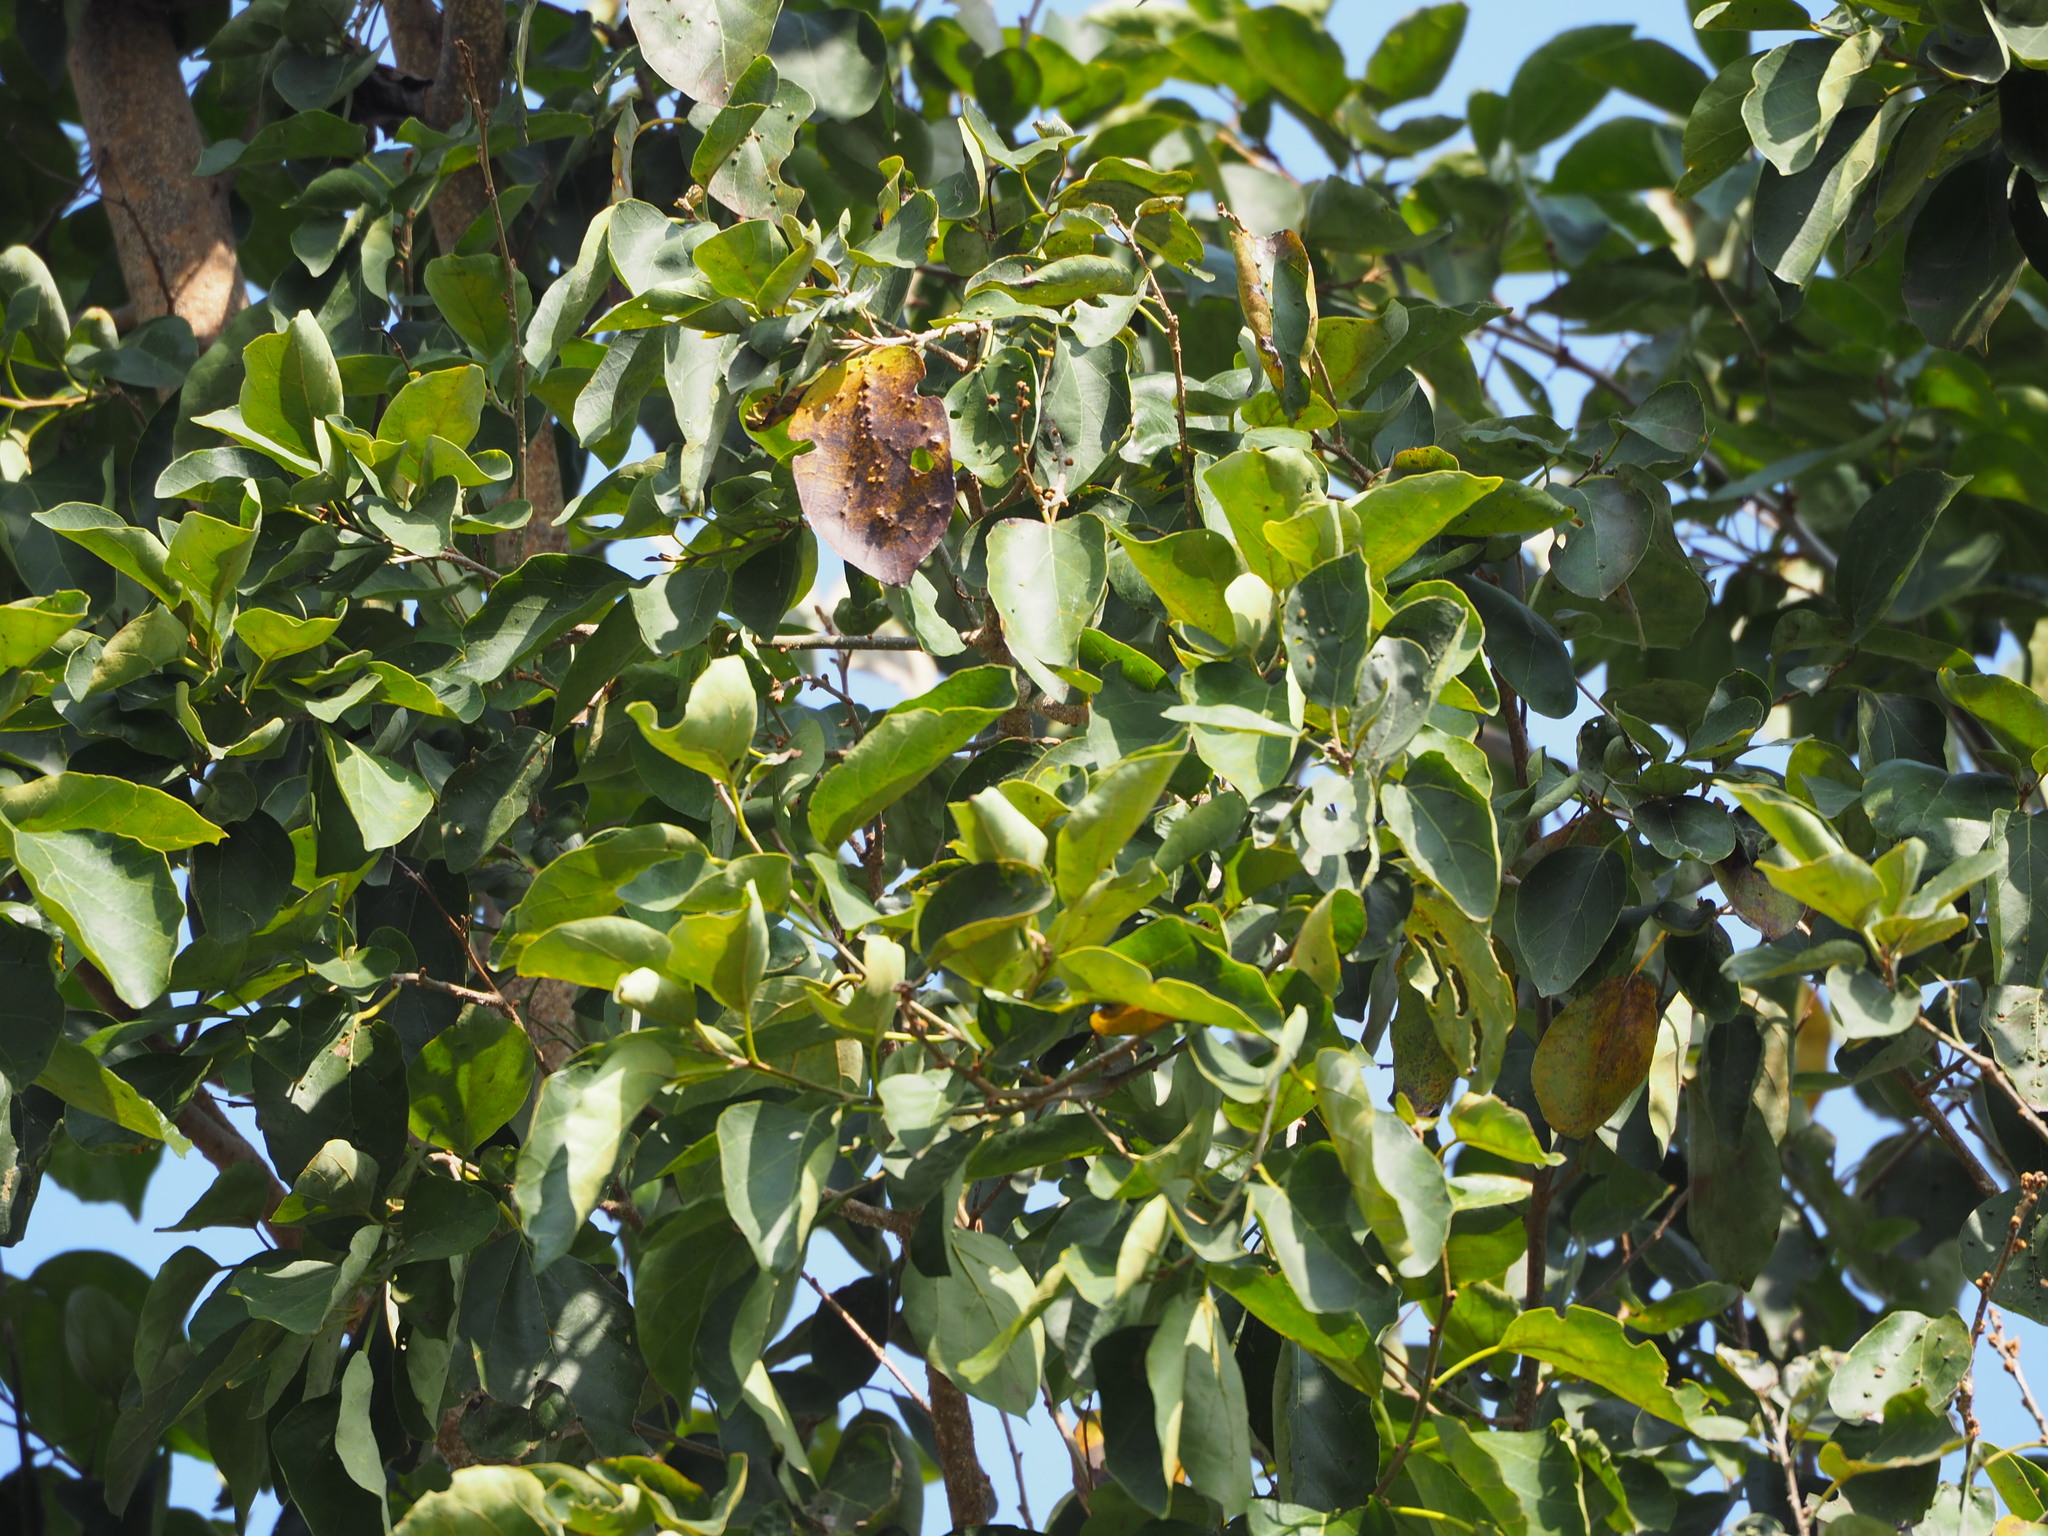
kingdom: Plantae
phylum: Tracheophyta
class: Magnoliopsida
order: Boraginales
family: Cordiaceae
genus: Cordia
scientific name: Cordia dichotoma
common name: Fragrant manjack
